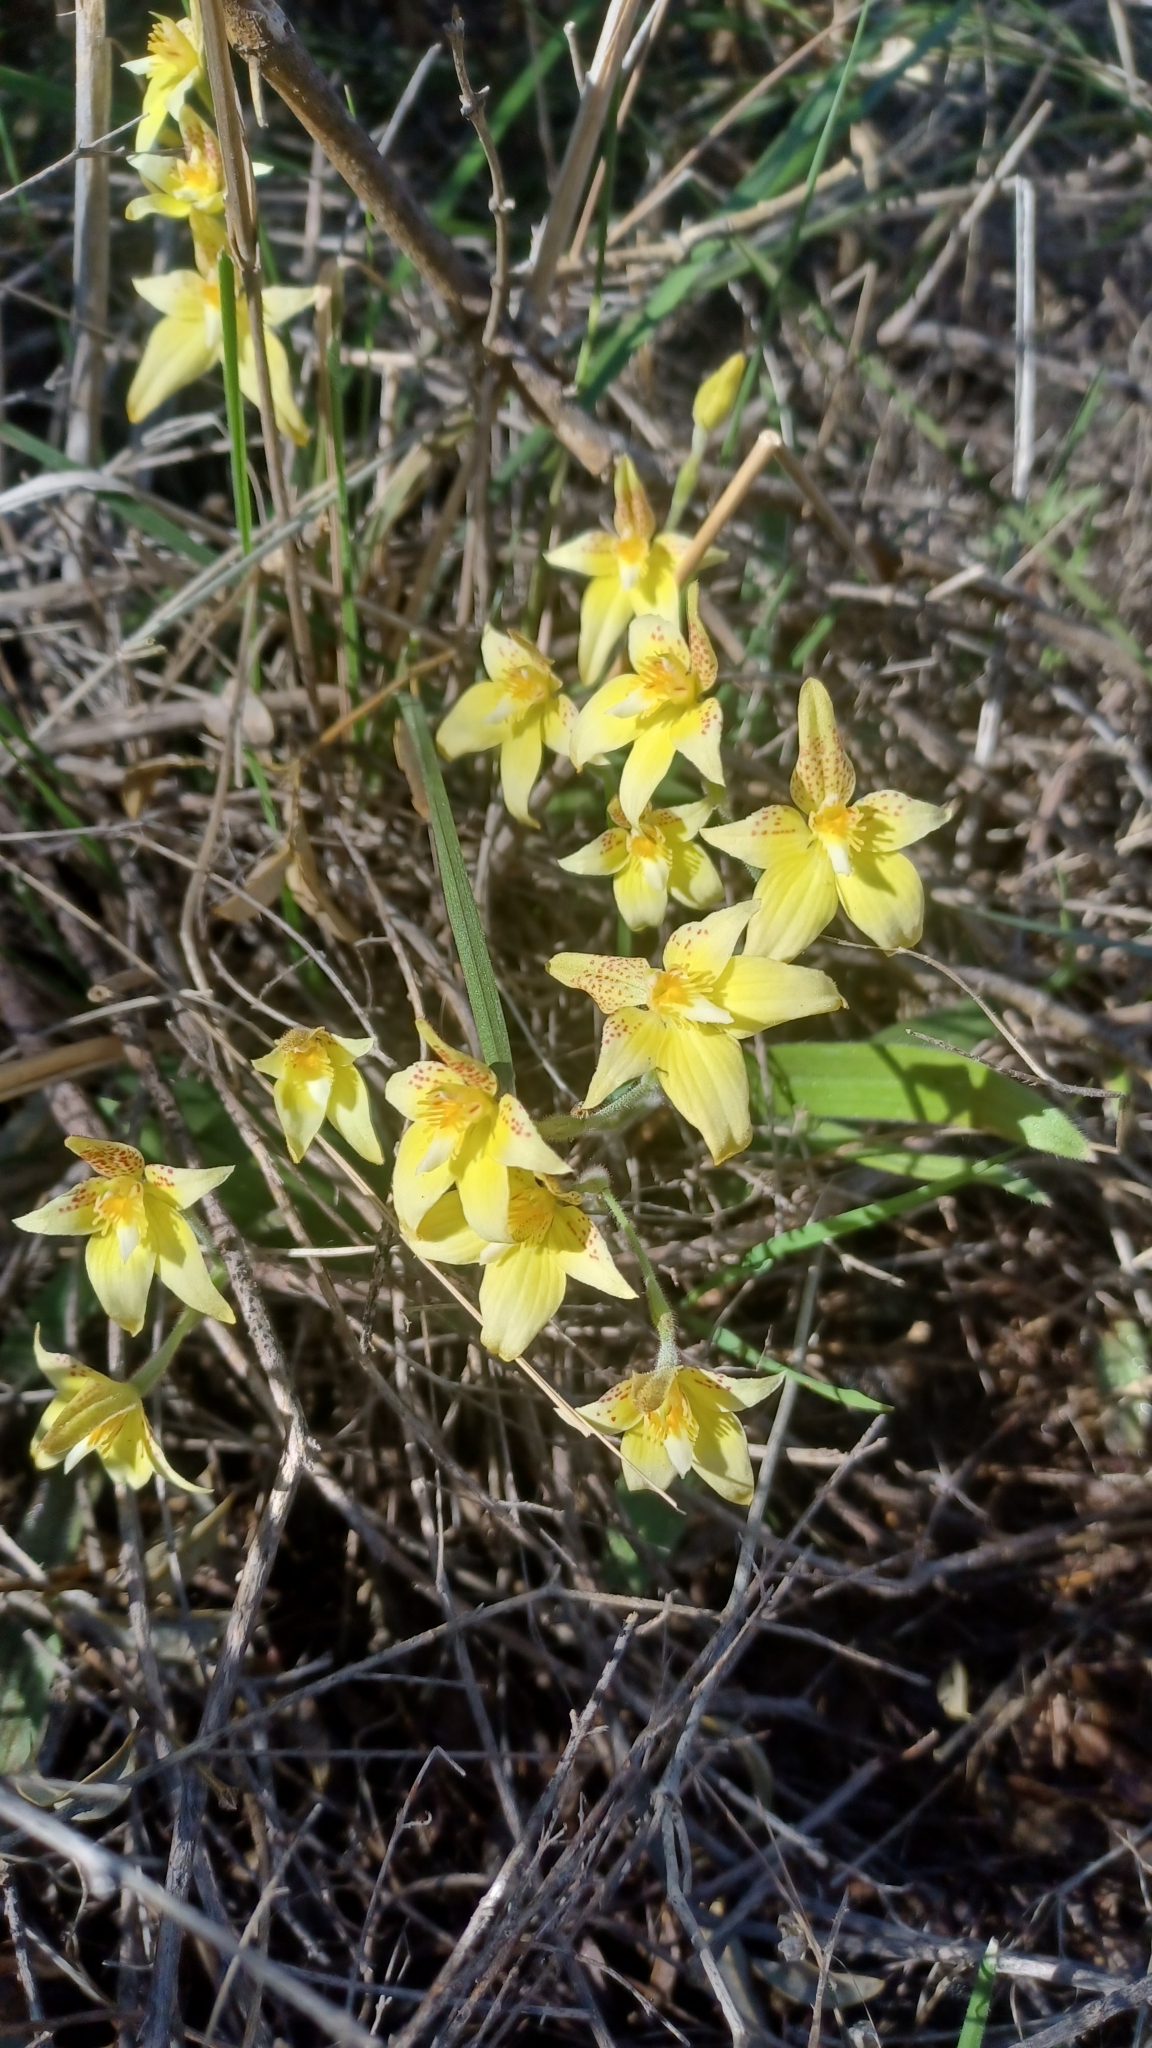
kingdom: Plantae
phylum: Tracheophyta
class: Liliopsida
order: Asparagales
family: Orchidaceae
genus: Caladenia
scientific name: Caladenia flava
